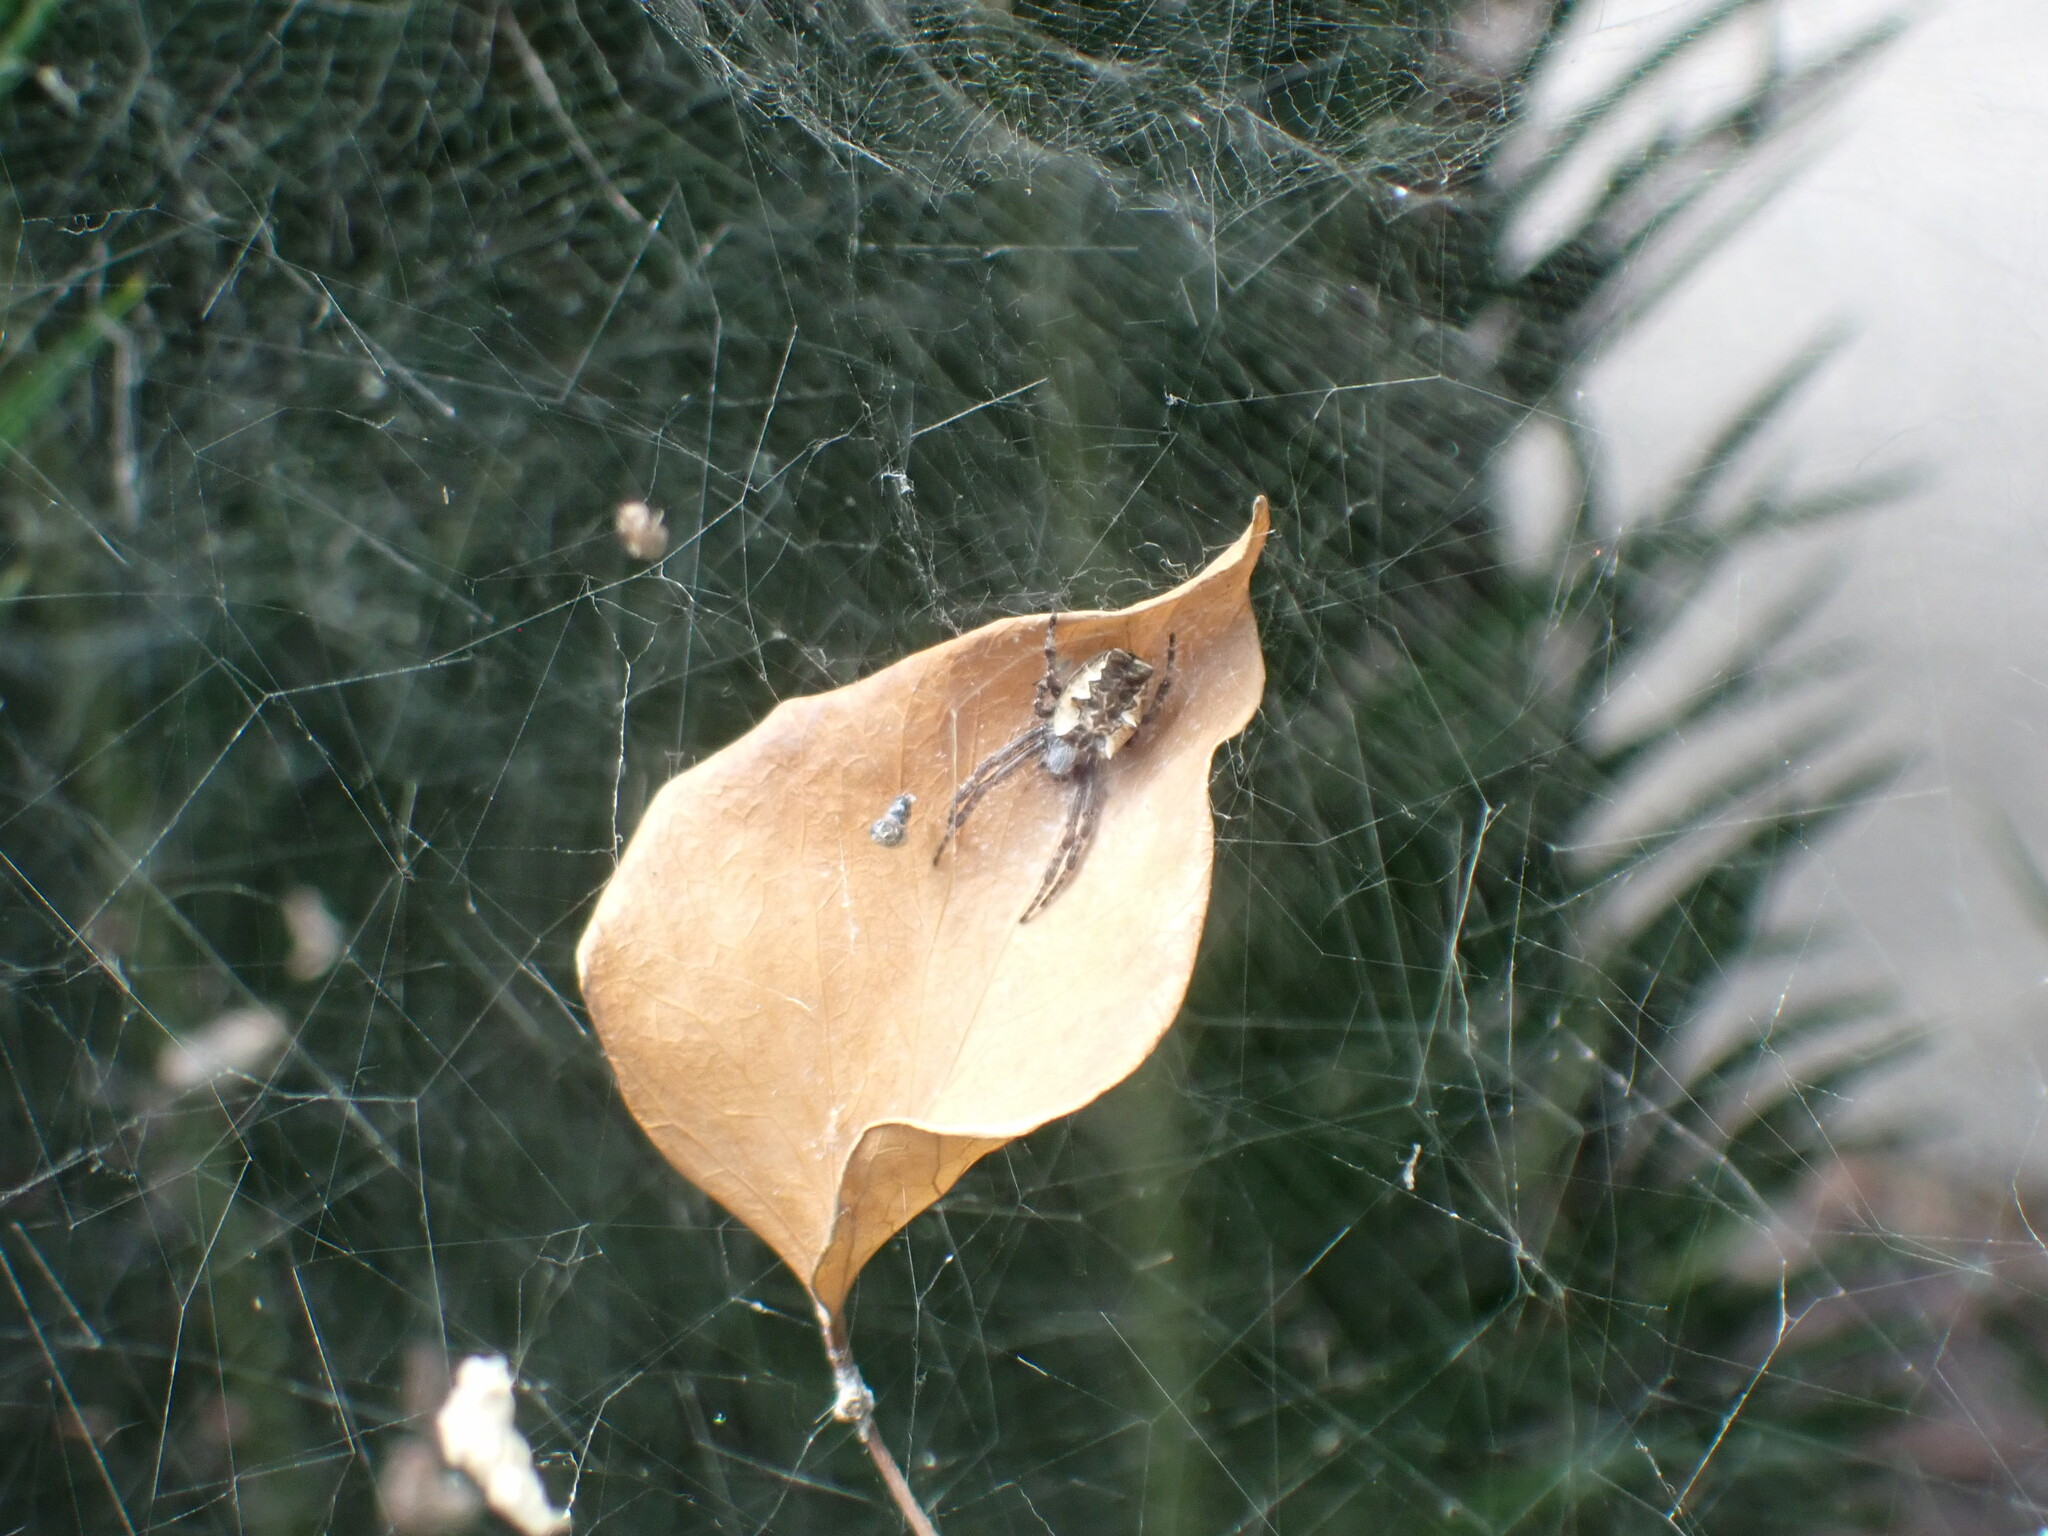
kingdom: Animalia
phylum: Arthropoda
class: Arachnida
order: Araneae
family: Araneidae
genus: Cyrtophora
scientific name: Cyrtophora citricola
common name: Orb weavers
